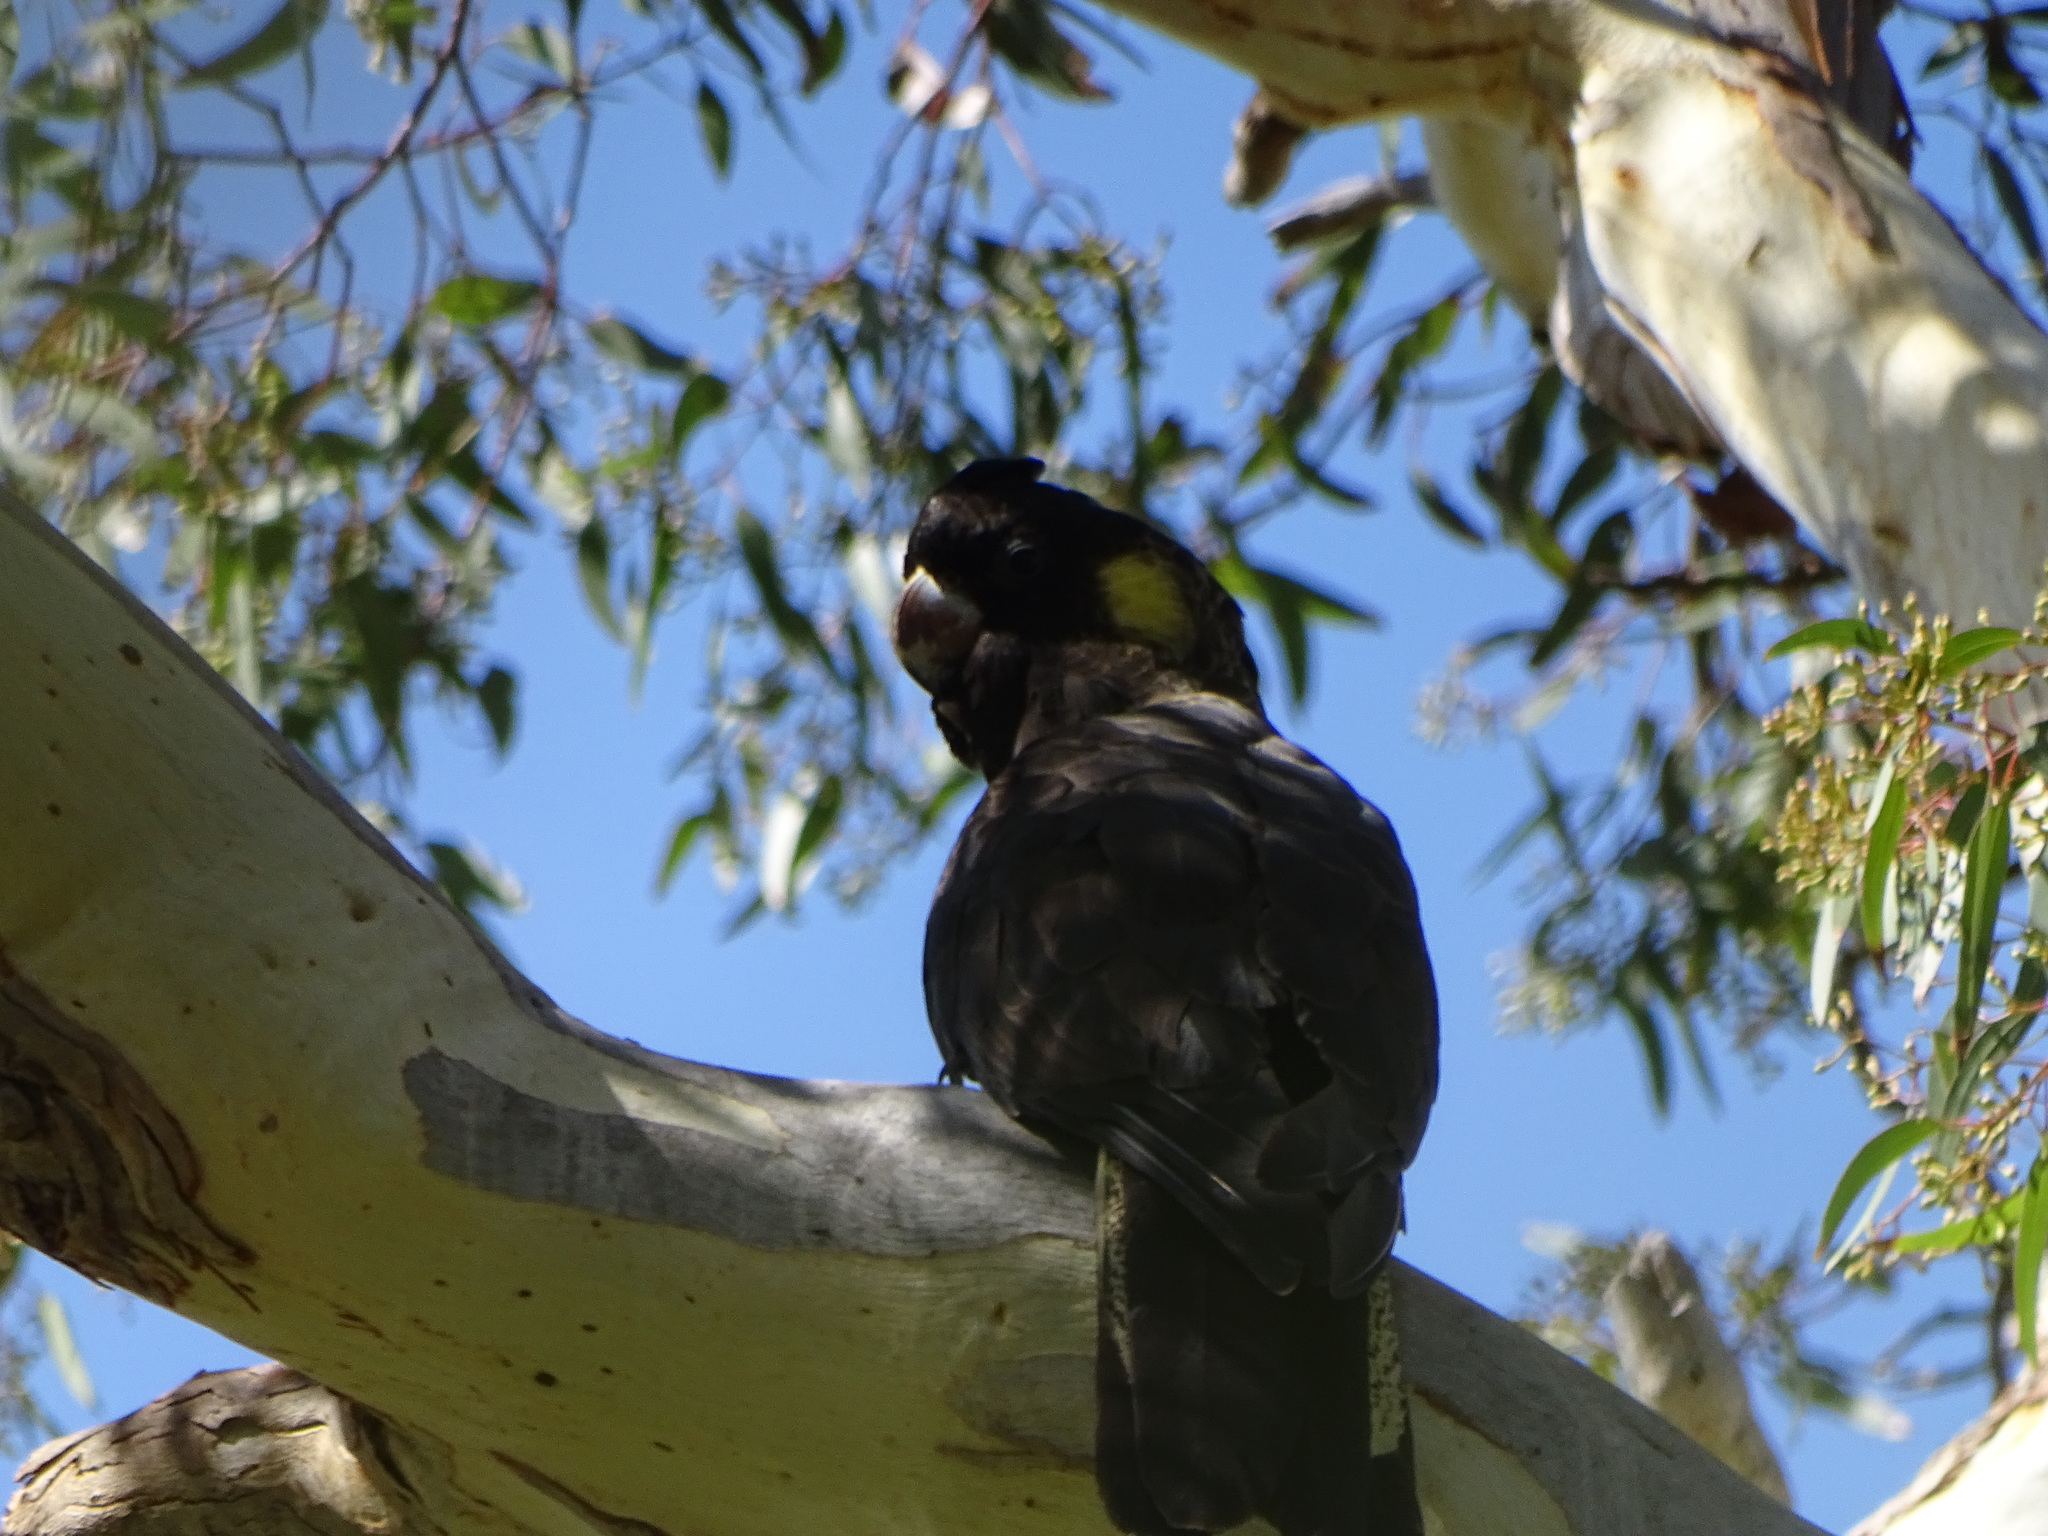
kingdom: Animalia
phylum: Chordata
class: Aves
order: Psittaciformes
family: Cacatuidae
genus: Zanda
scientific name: Zanda funerea
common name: Yellow-tailed black-cockatoo
